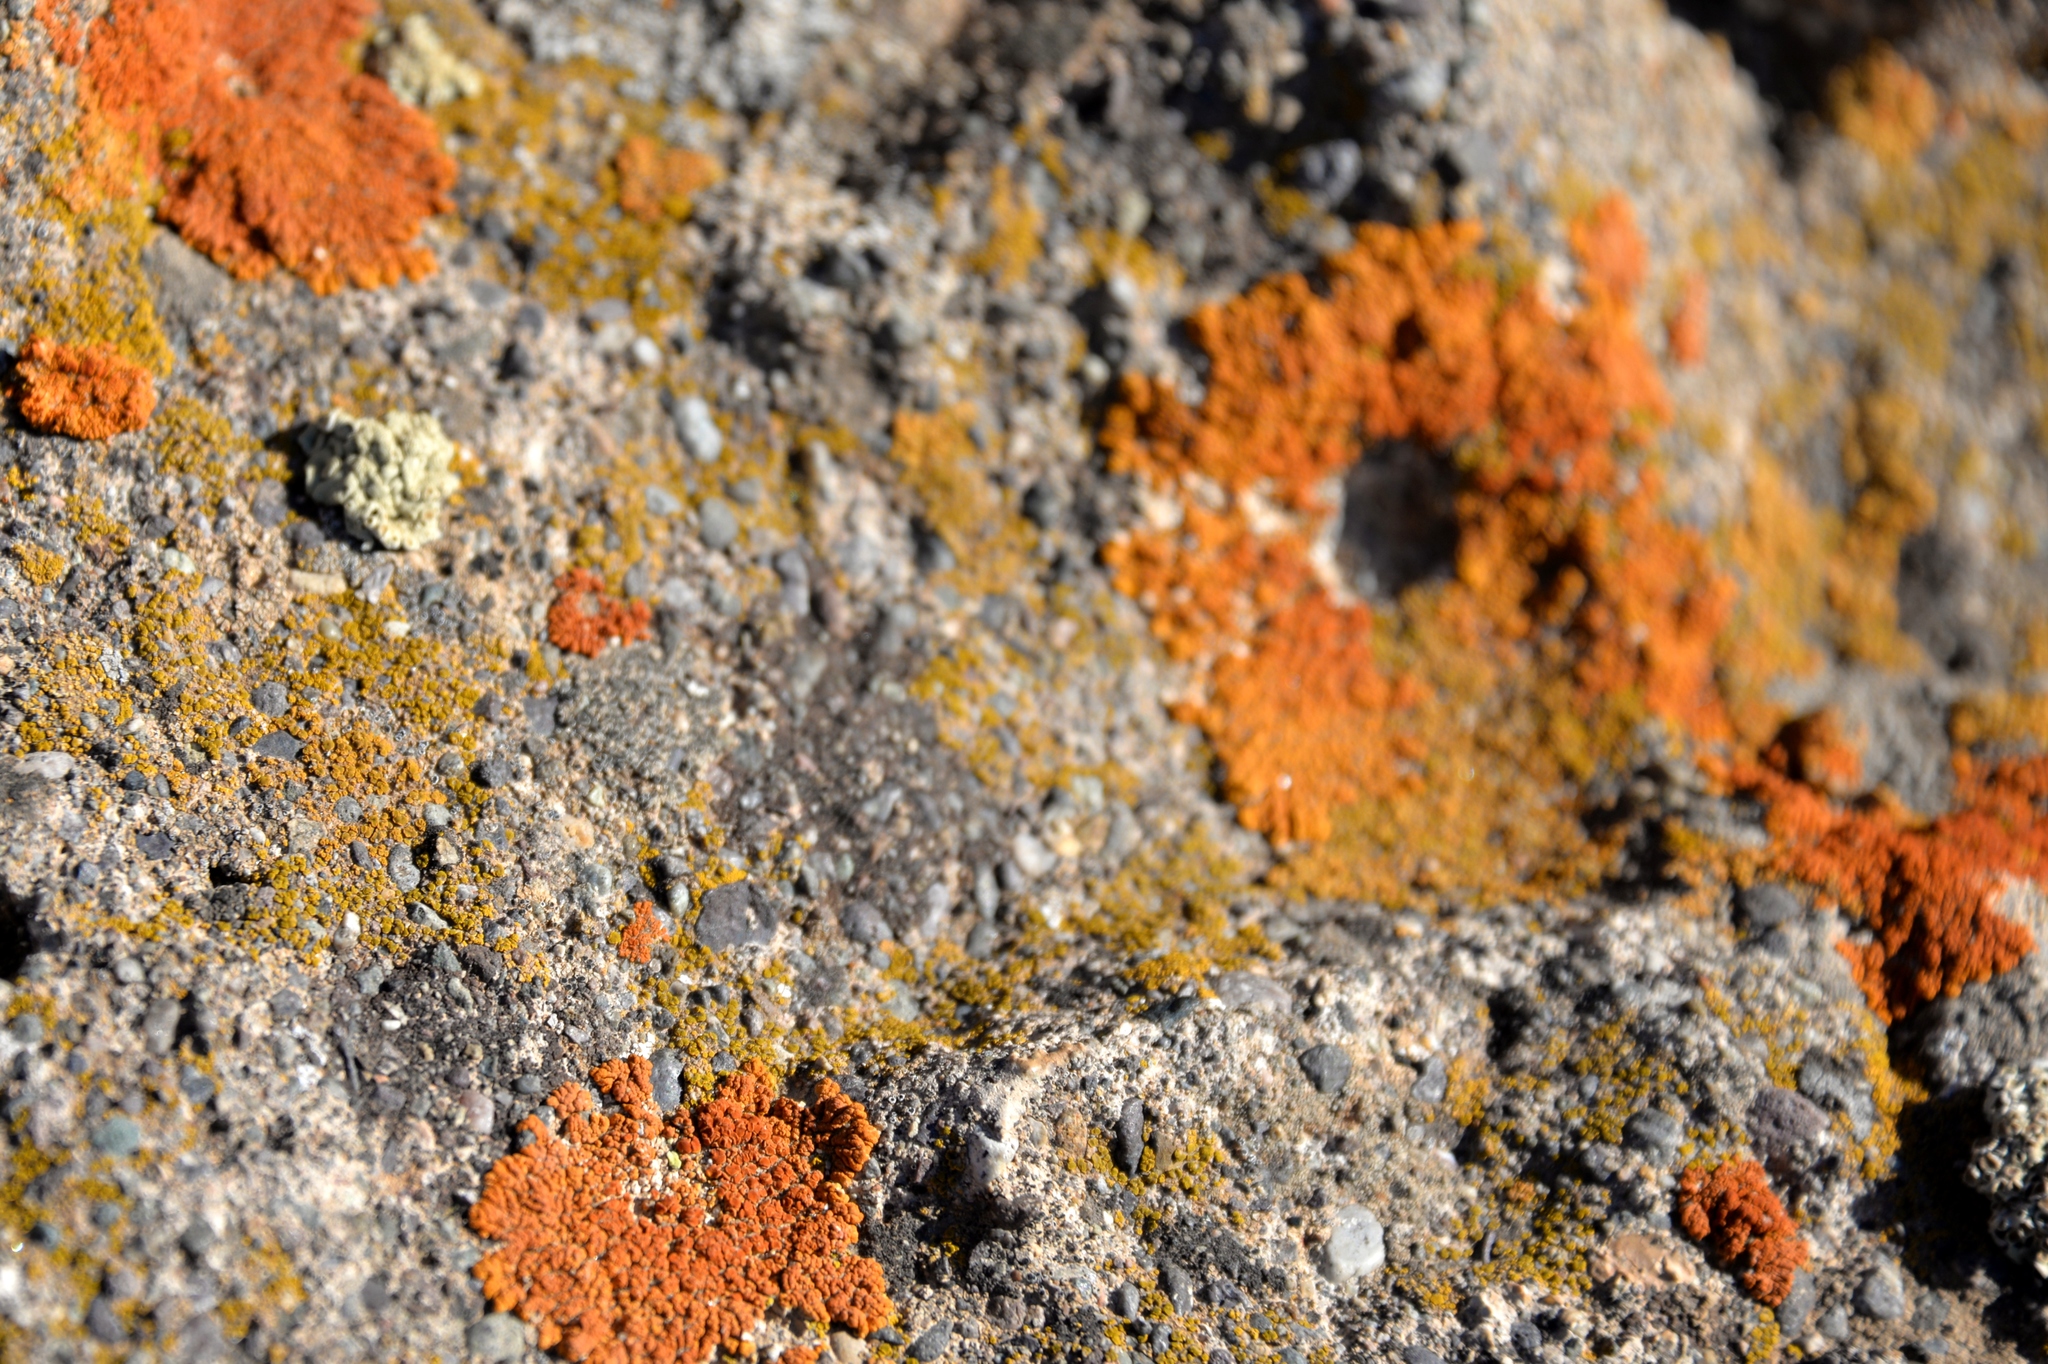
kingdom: Fungi
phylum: Ascomycota
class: Lecanoromycetes
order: Teloschistales
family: Teloschistaceae
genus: Xanthoria
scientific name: Xanthoria elegans
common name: Elegant sunburst lichen
